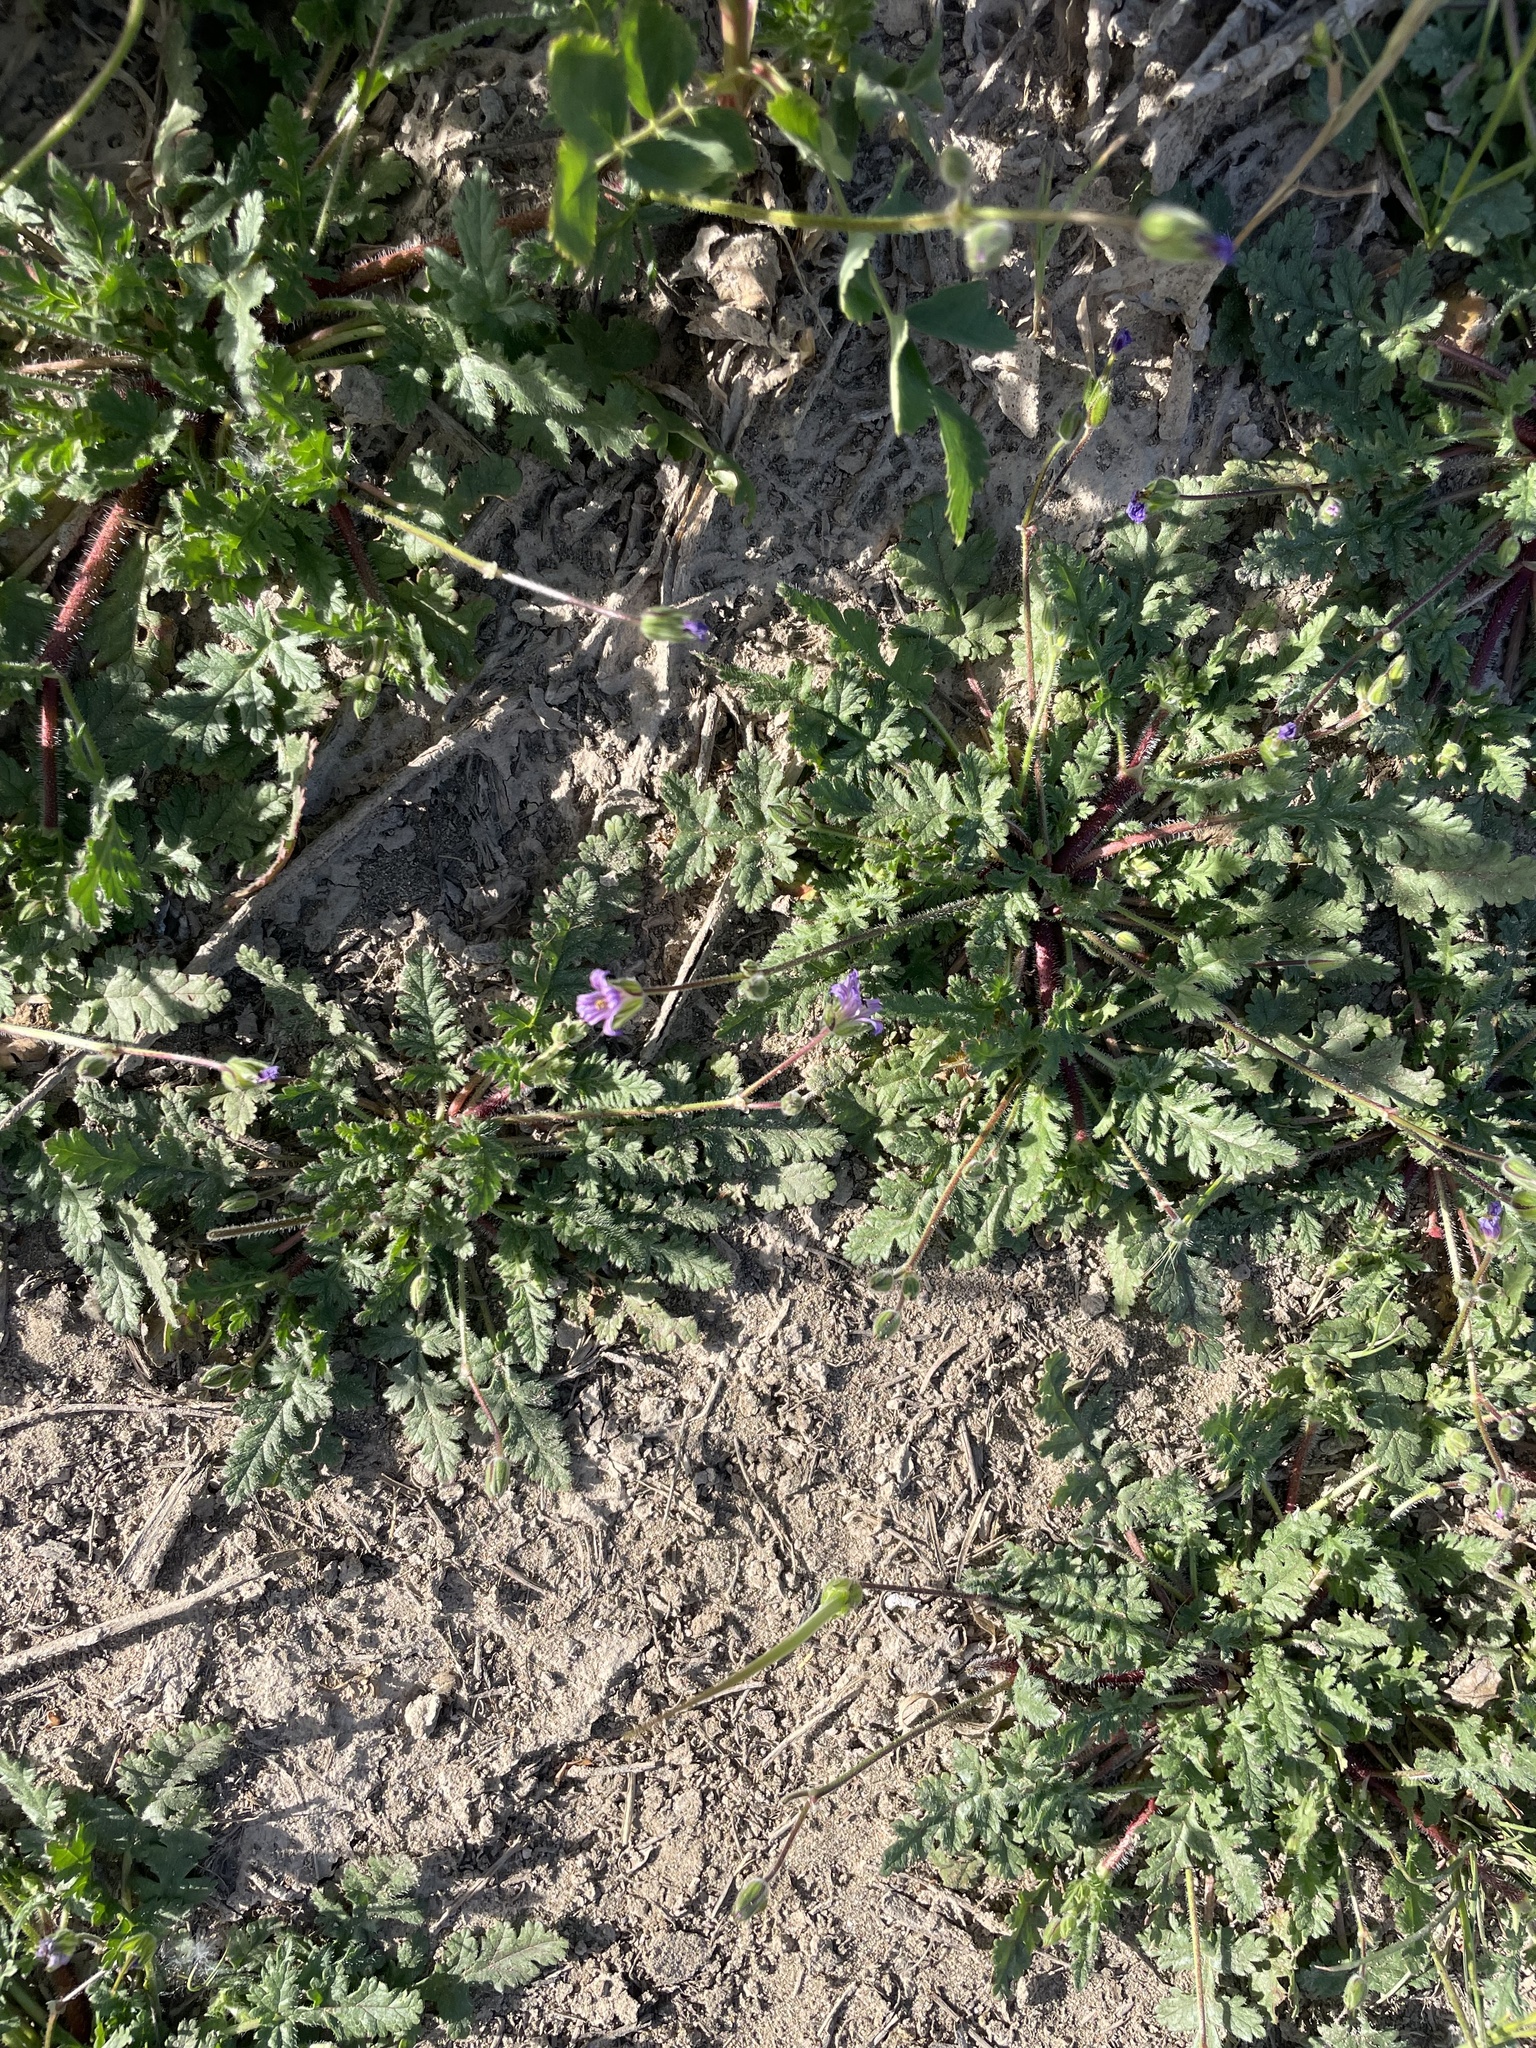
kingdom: Plantae
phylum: Tracheophyta
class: Magnoliopsida
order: Geraniales
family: Geraniaceae
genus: Erodium
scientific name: Erodium botrys
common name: Mediterranean stork's-bill
